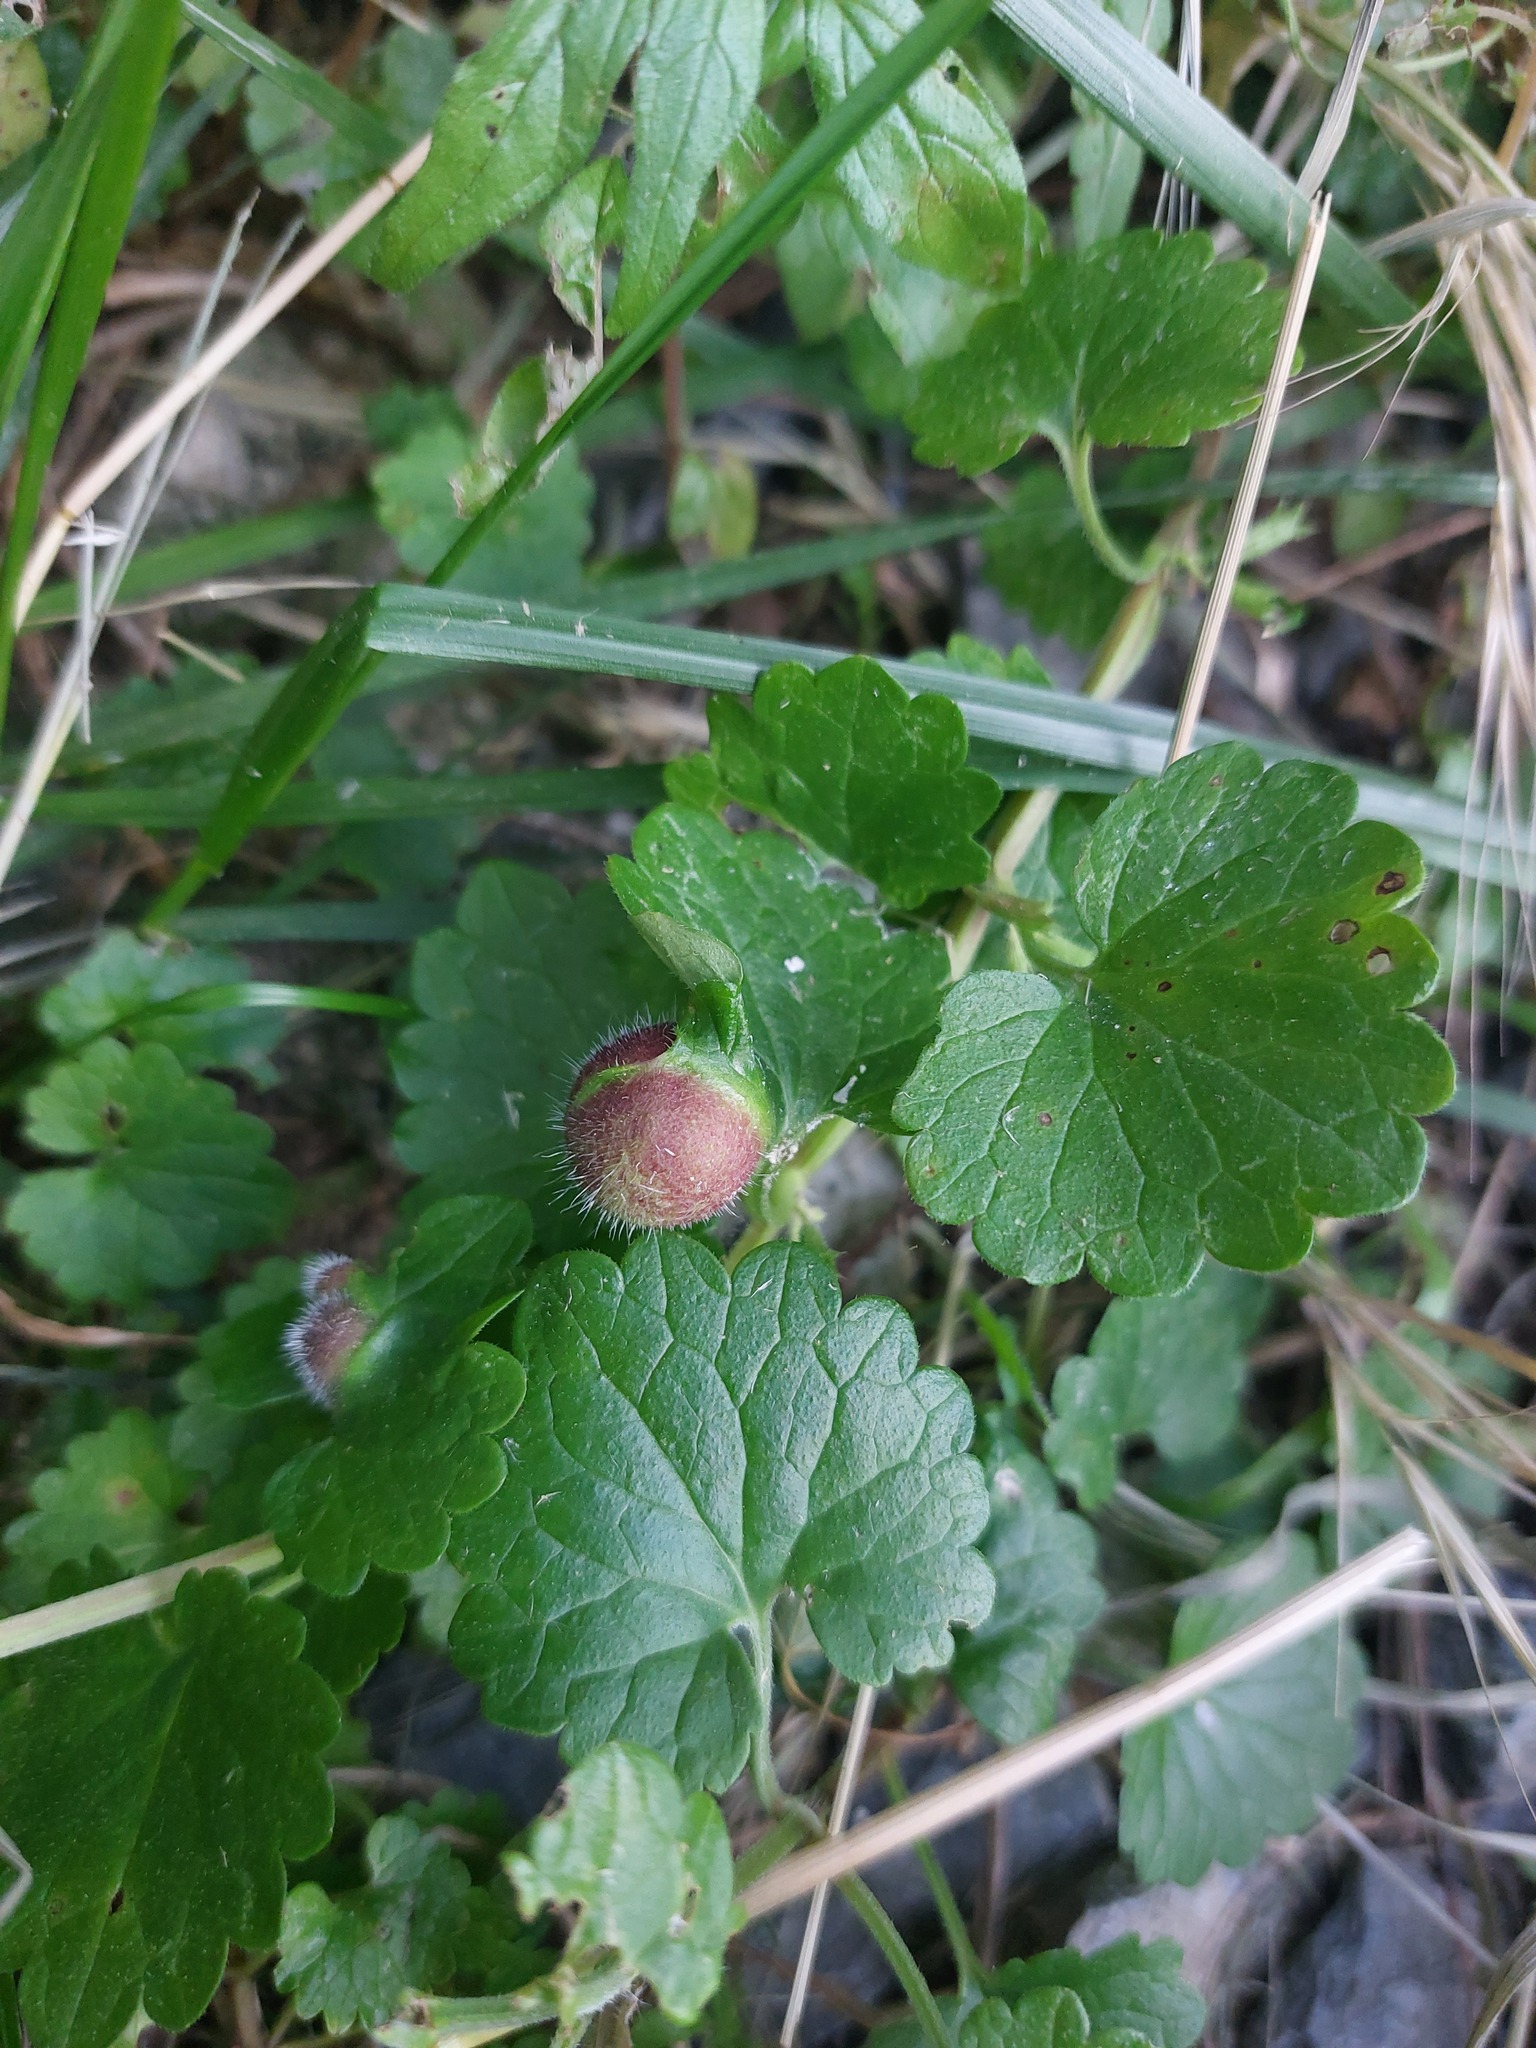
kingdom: Plantae
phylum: Tracheophyta
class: Magnoliopsida
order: Lamiales
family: Lamiaceae
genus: Glechoma
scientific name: Glechoma hederacea
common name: Ground ivy
